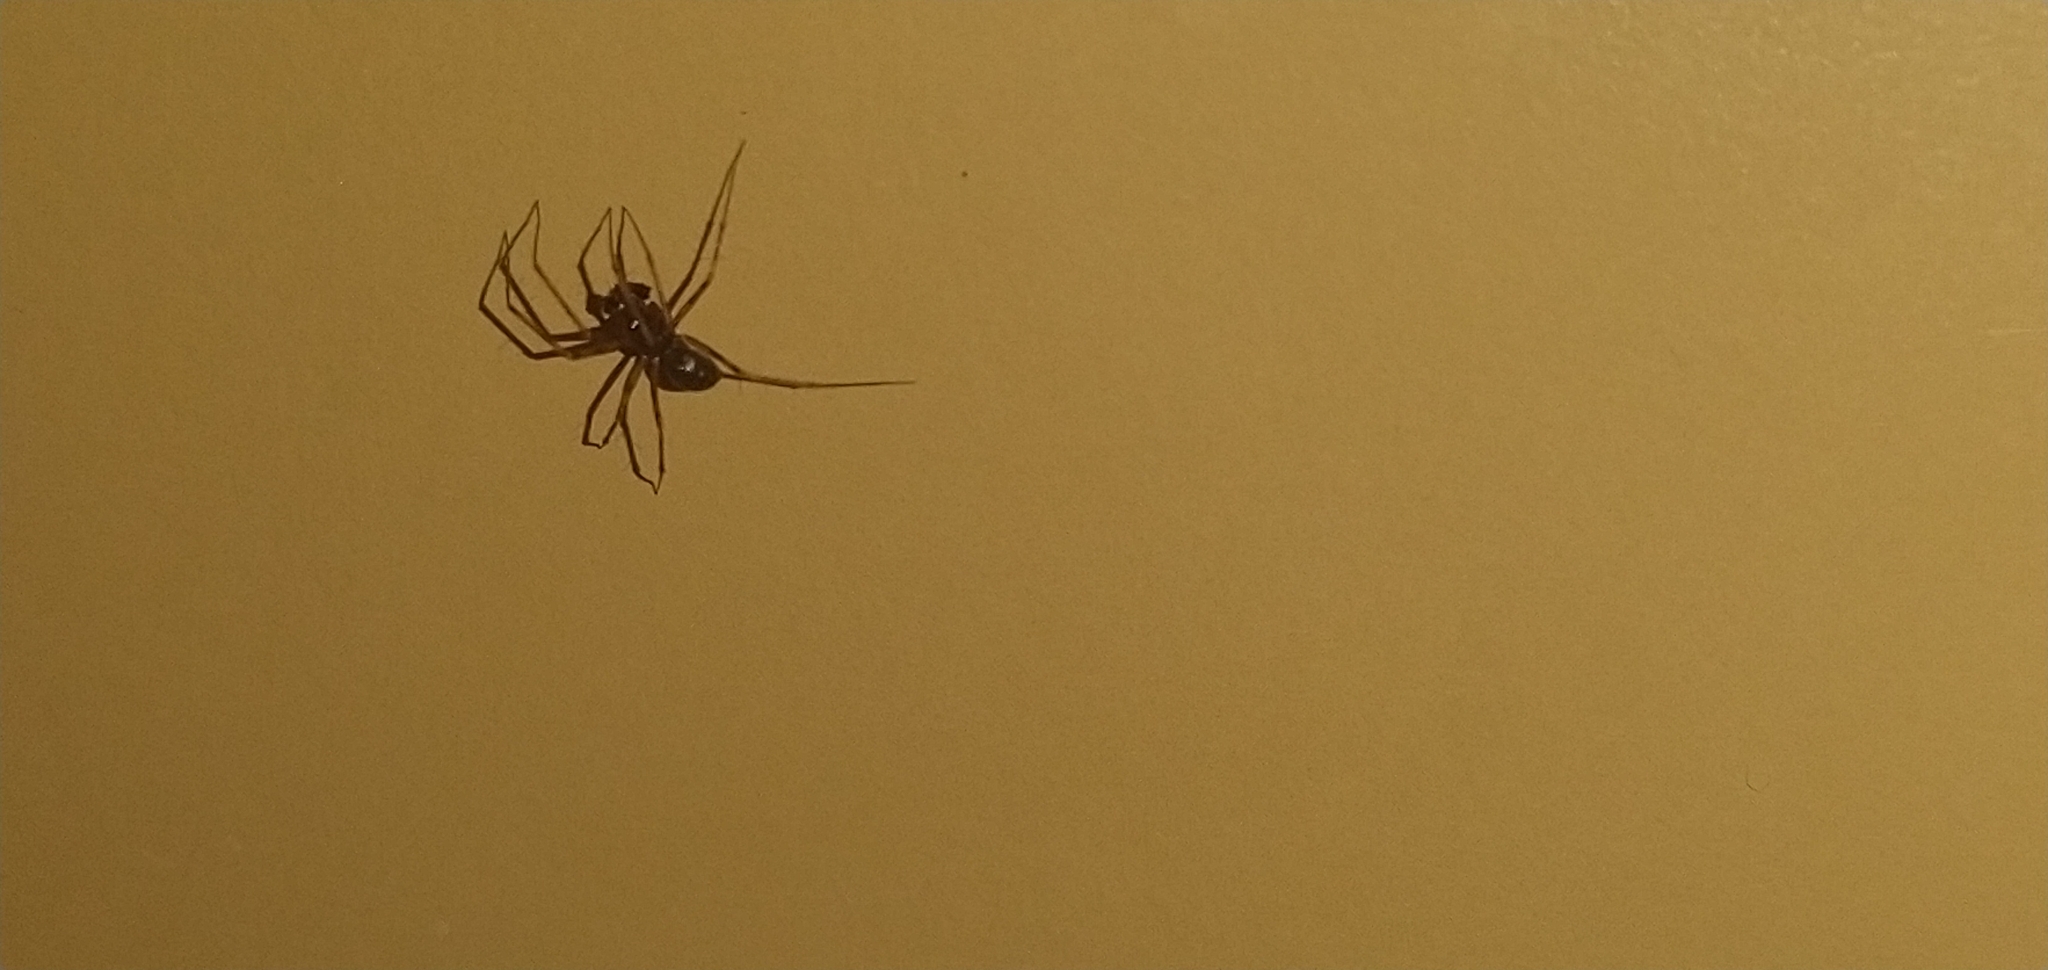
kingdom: Animalia
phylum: Arthropoda
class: Arachnida
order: Araneae
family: Theridiidae
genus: Steatoda
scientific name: Steatoda grossa
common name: False black widow
